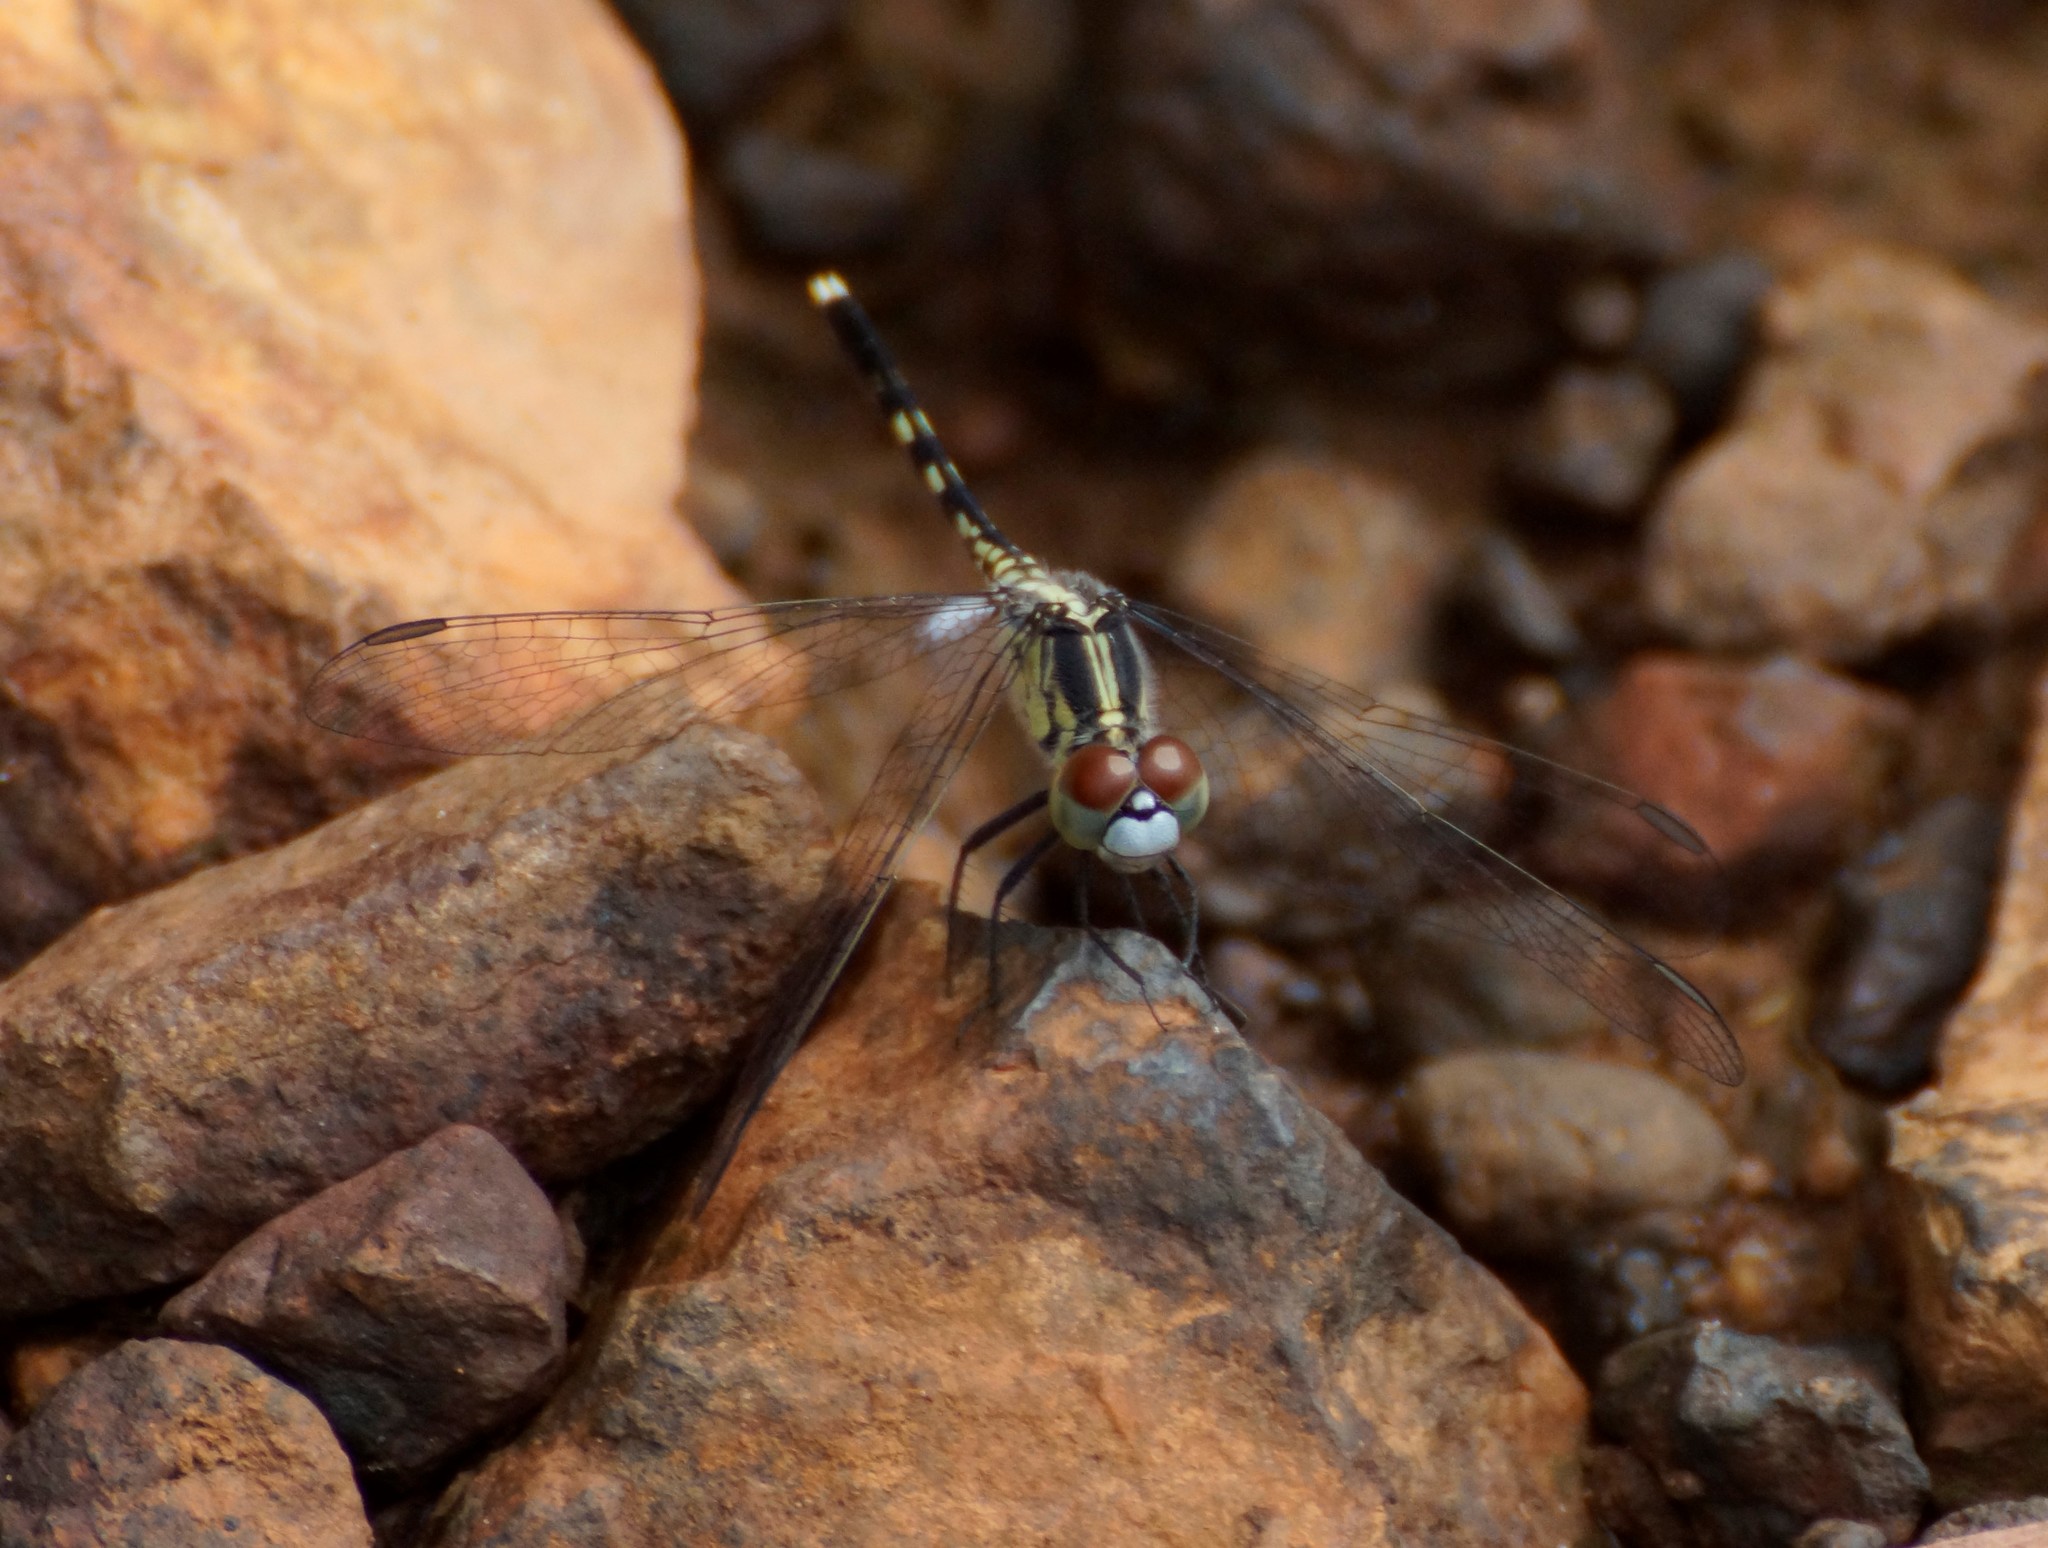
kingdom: Animalia
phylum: Arthropoda
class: Insecta
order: Odonata
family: Libellulidae
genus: Diplacodes
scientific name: Diplacodes trivialis
